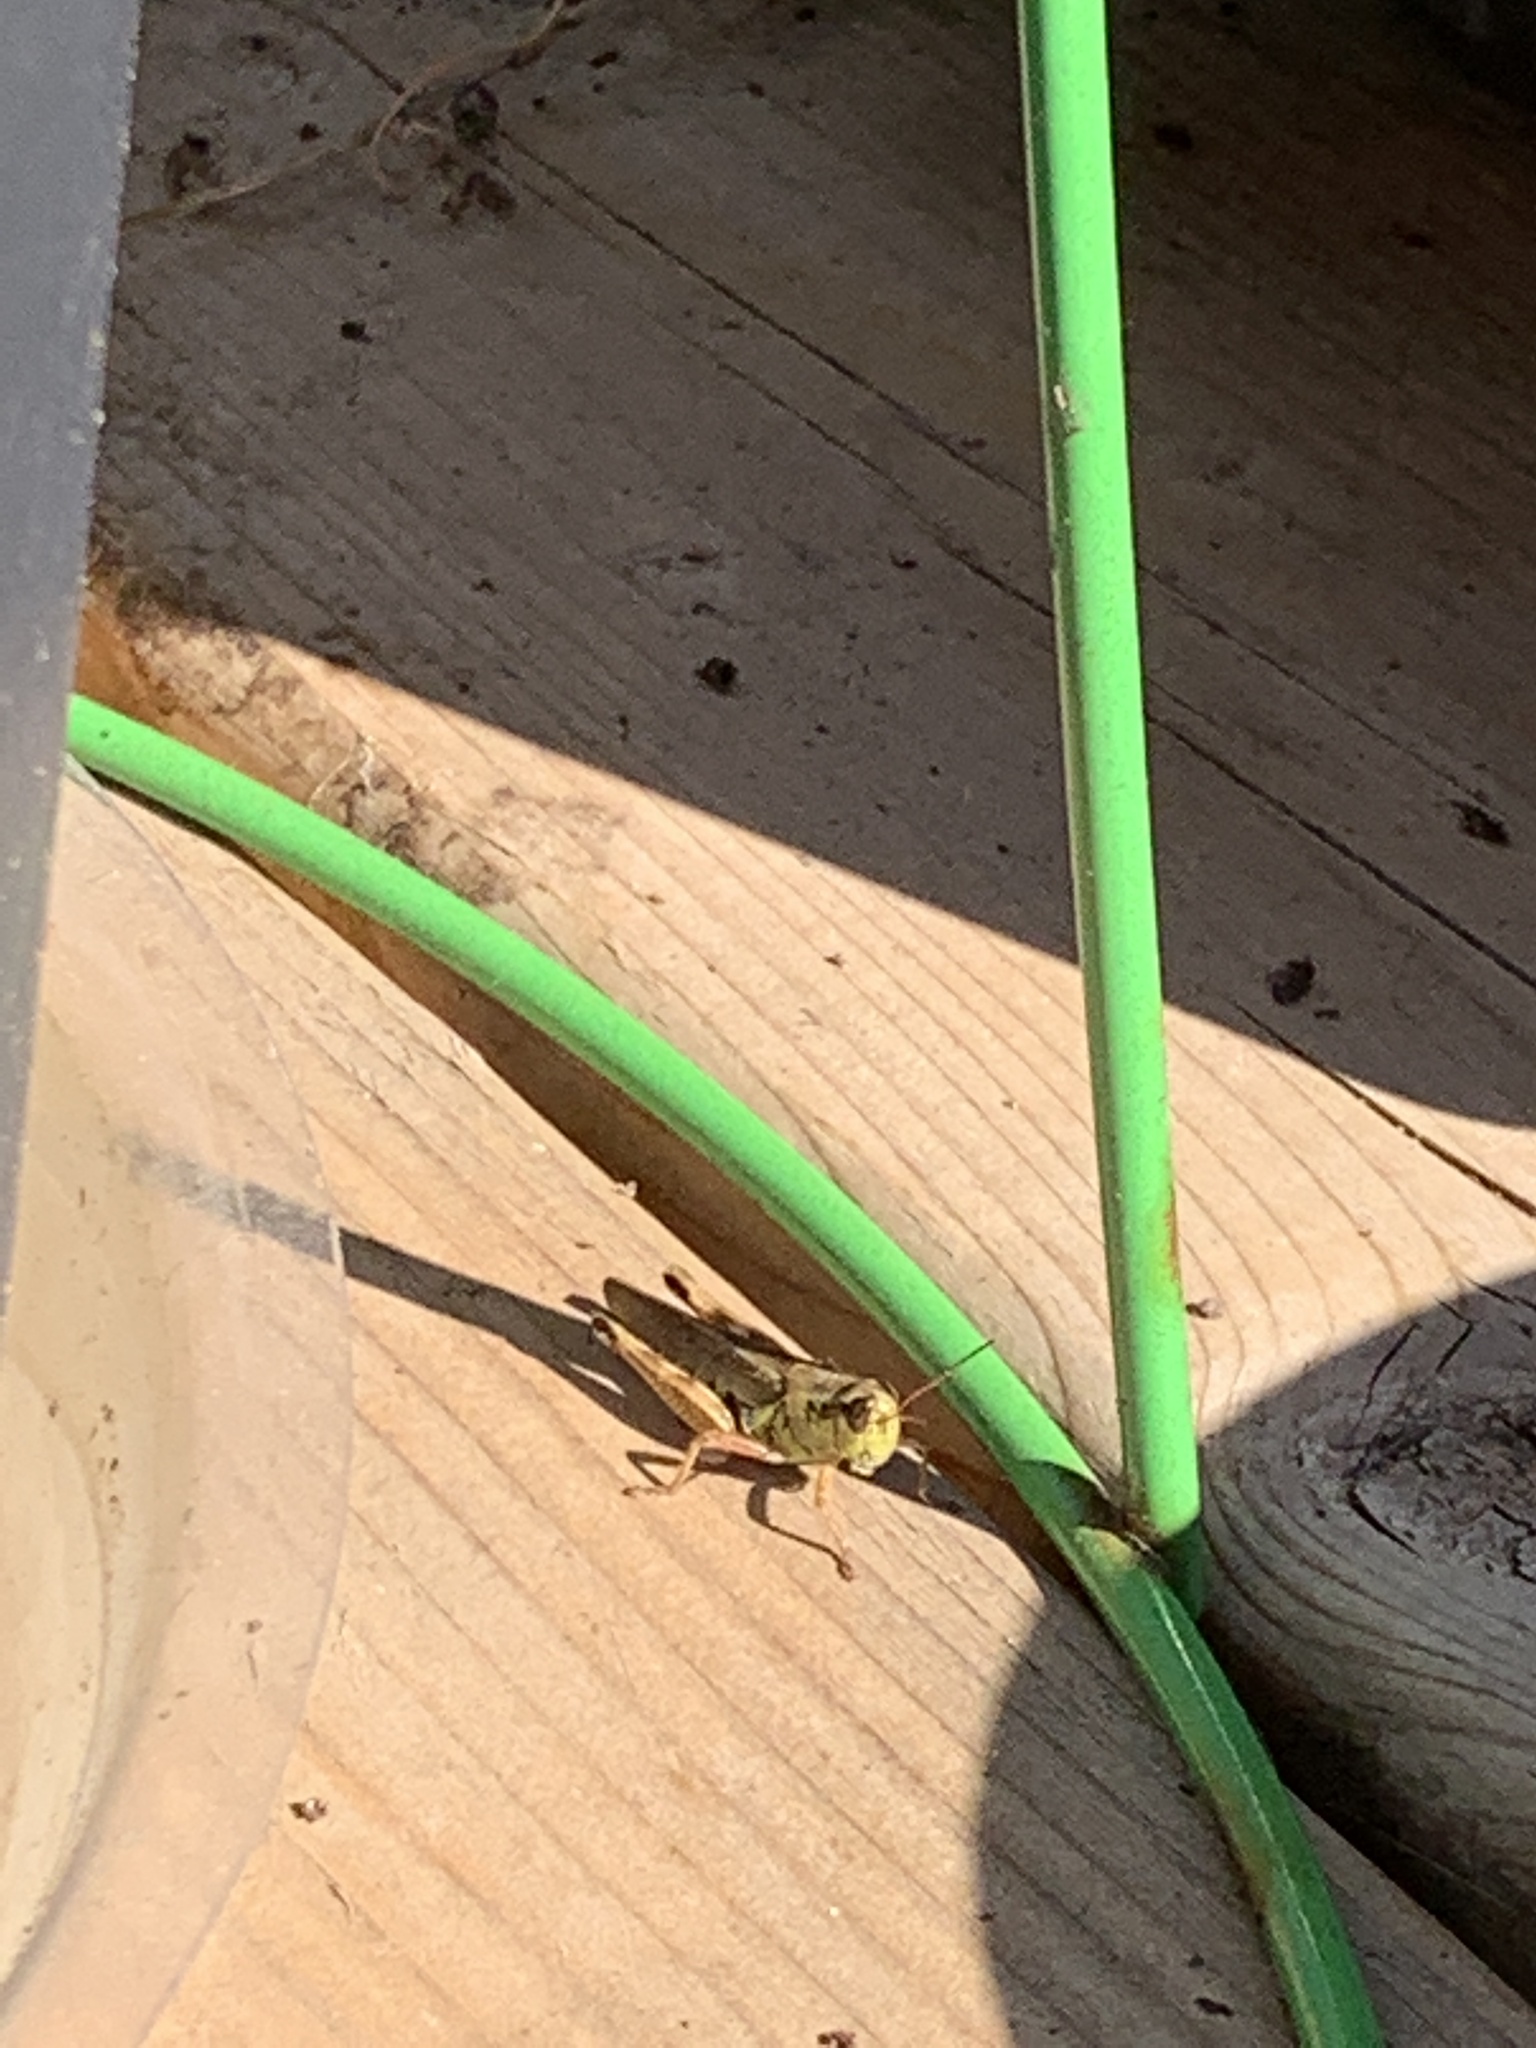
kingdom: Animalia
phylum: Arthropoda
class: Insecta
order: Orthoptera
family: Acrididae
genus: Melanoplus
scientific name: Melanoplus femurrubrum
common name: Red-legged grasshopper
